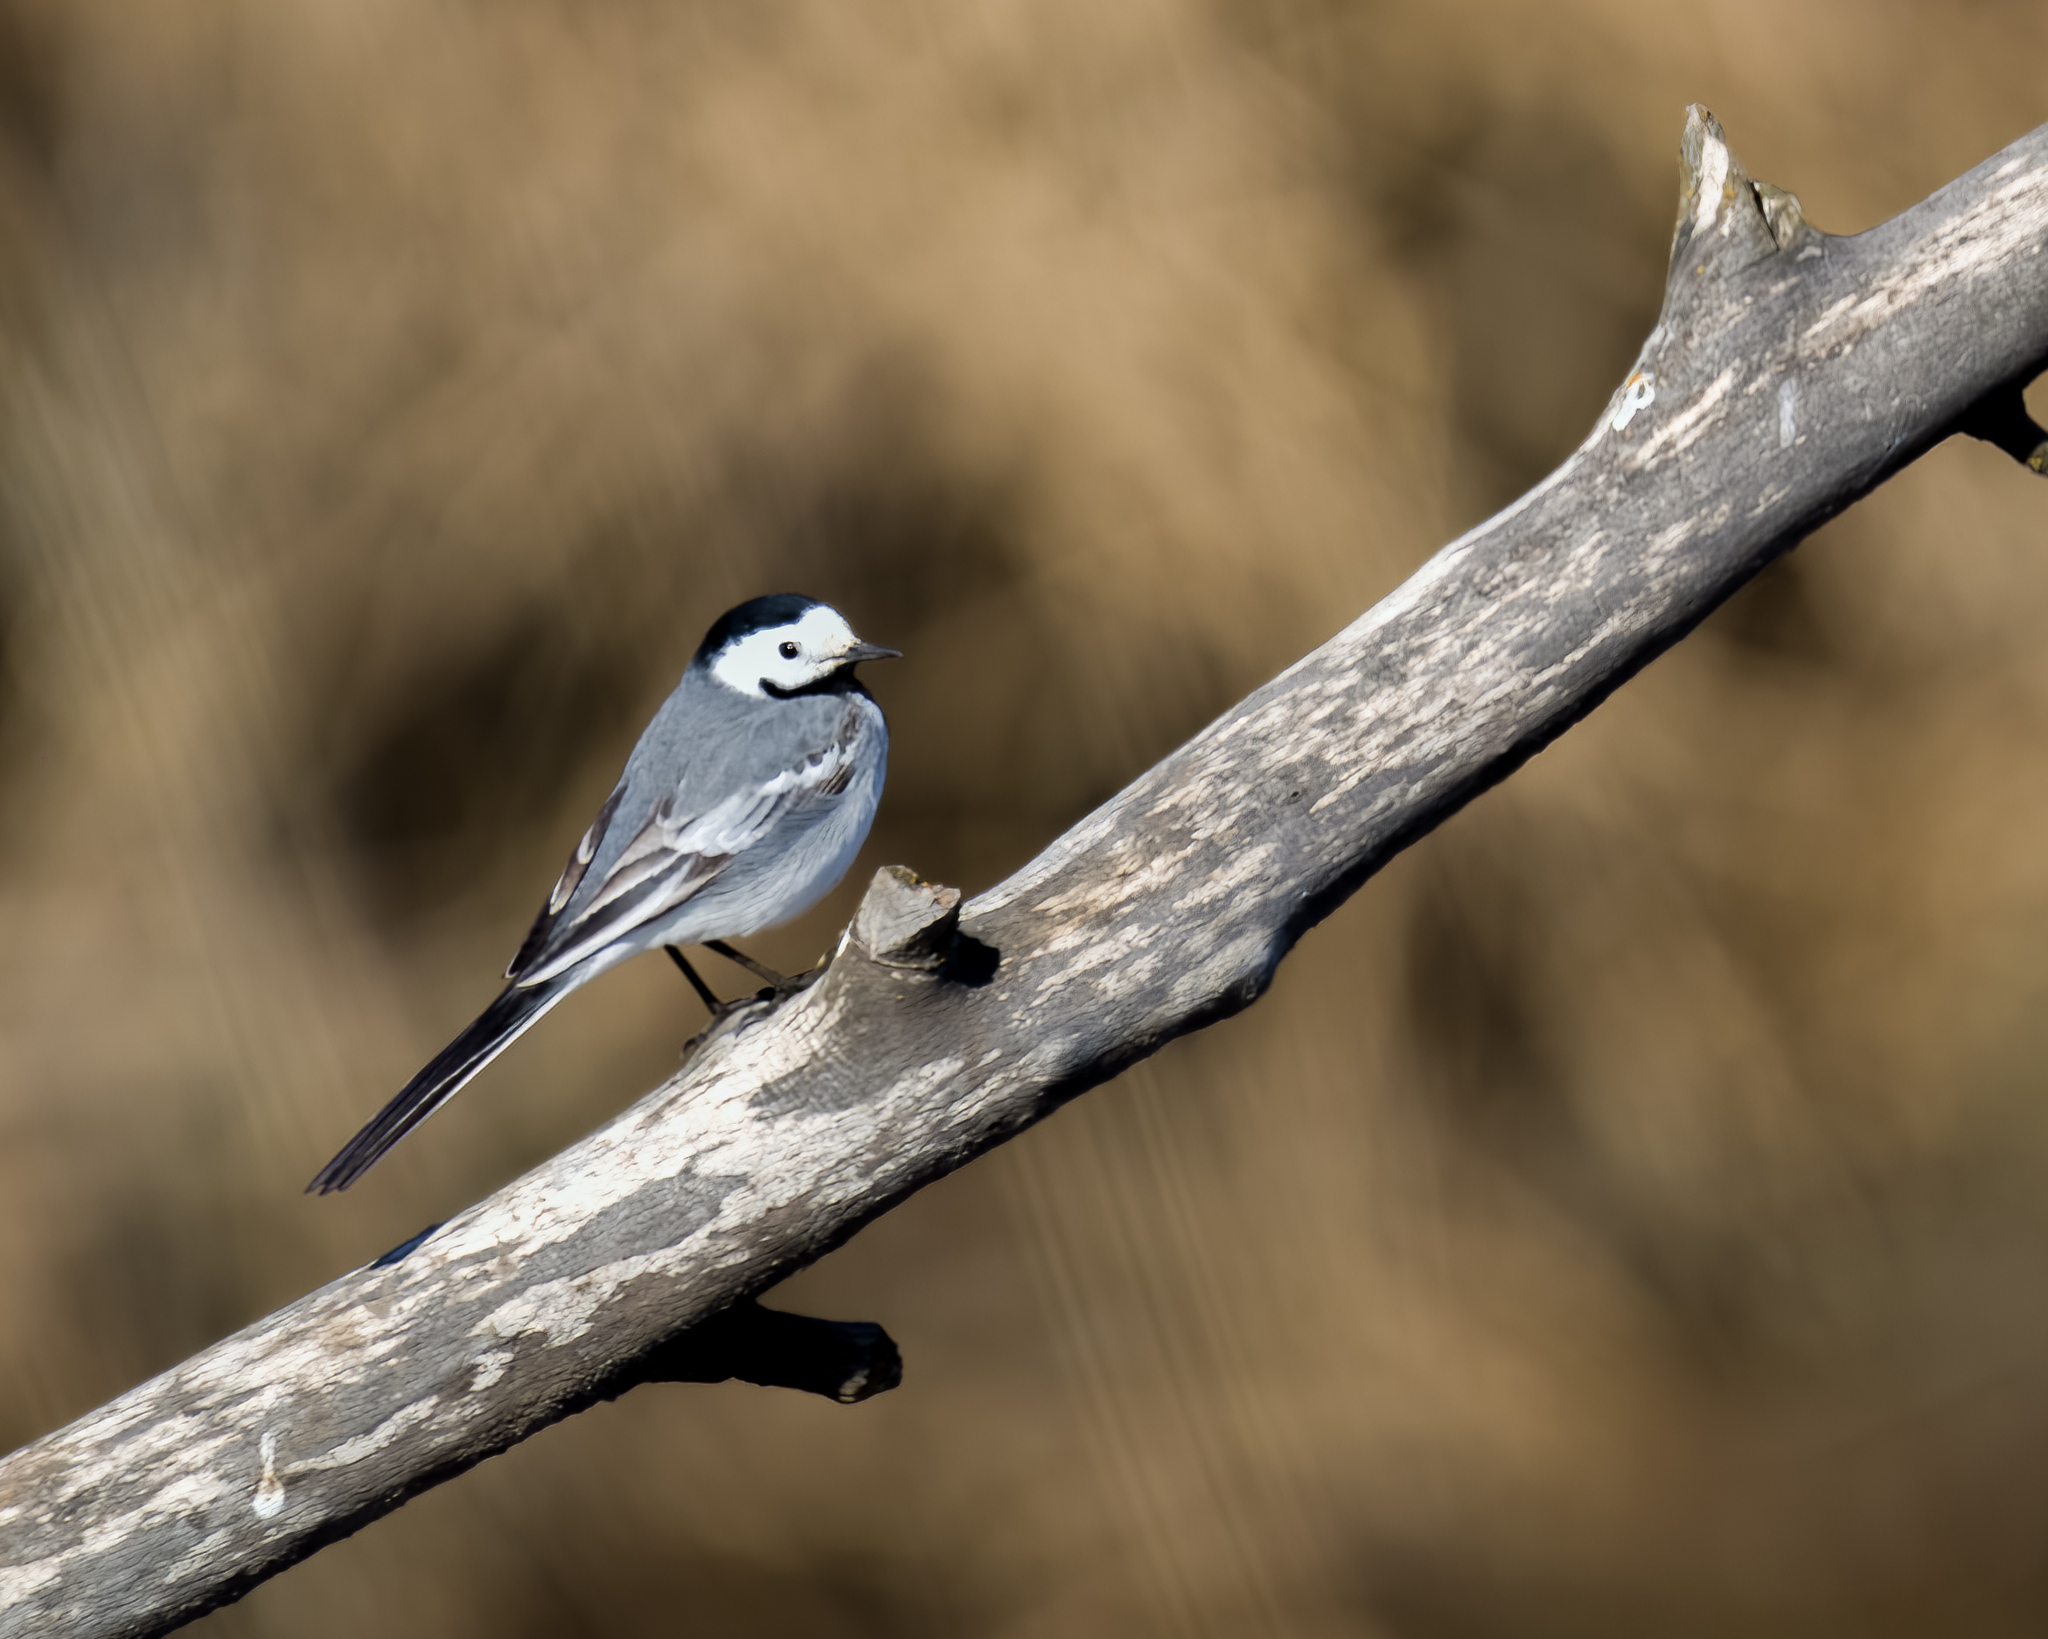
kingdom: Animalia
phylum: Chordata
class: Aves
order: Passeriformes
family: Motacillidae
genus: Motacilla
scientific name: Motacilla alba
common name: White wagtail
